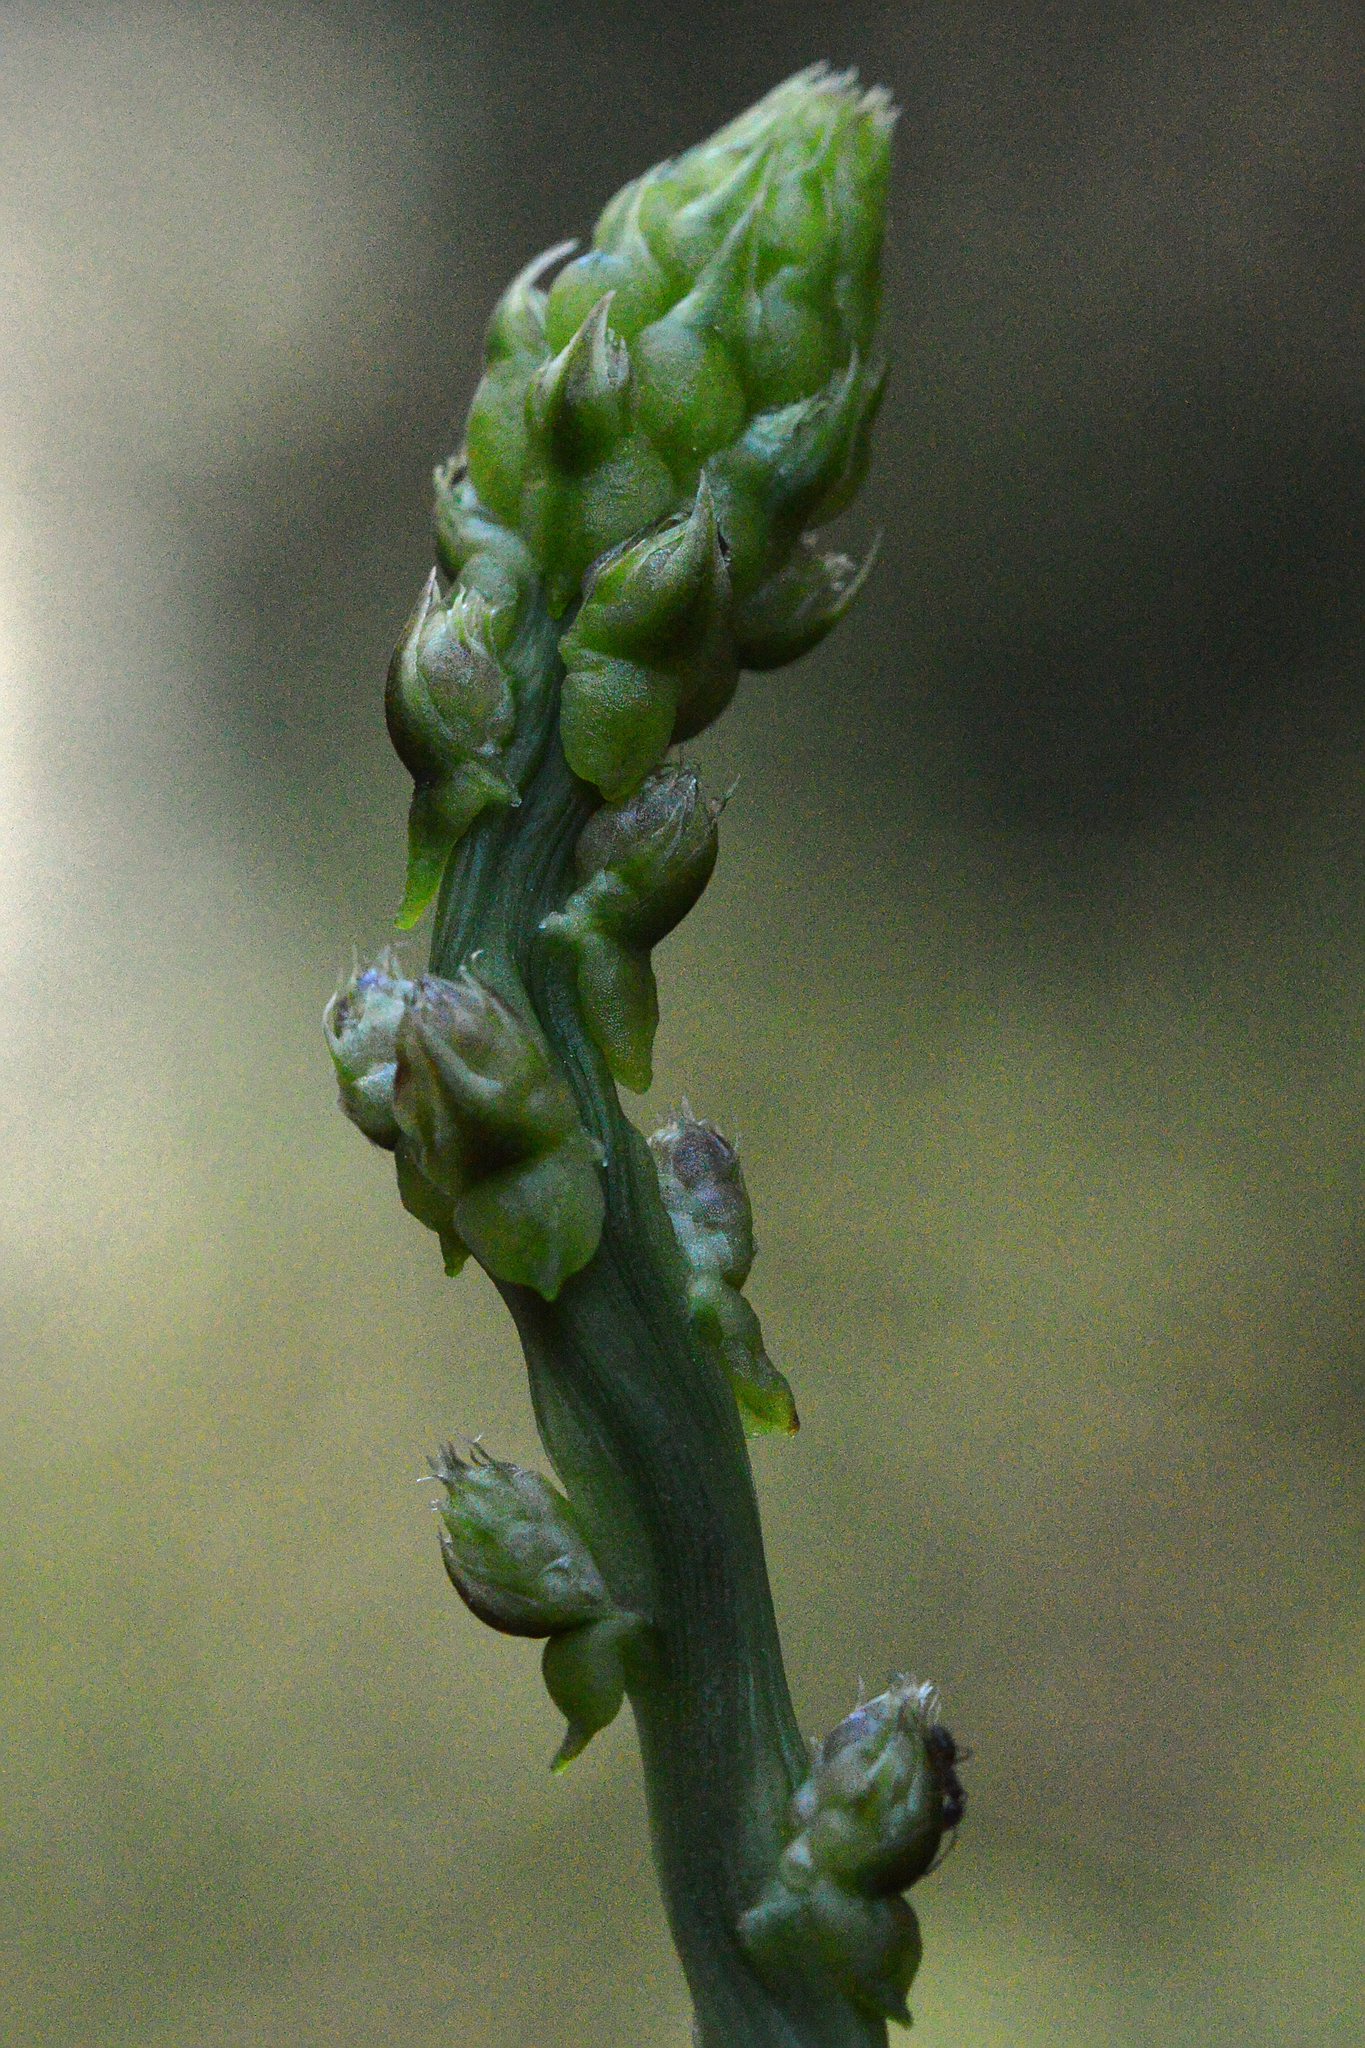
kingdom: Plantae
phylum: Tracheophyta
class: Liliopsida
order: Asparagales
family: Asparagaceae
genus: Asparagus
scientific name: Asparagus acutifolius
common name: Wild asparagus
